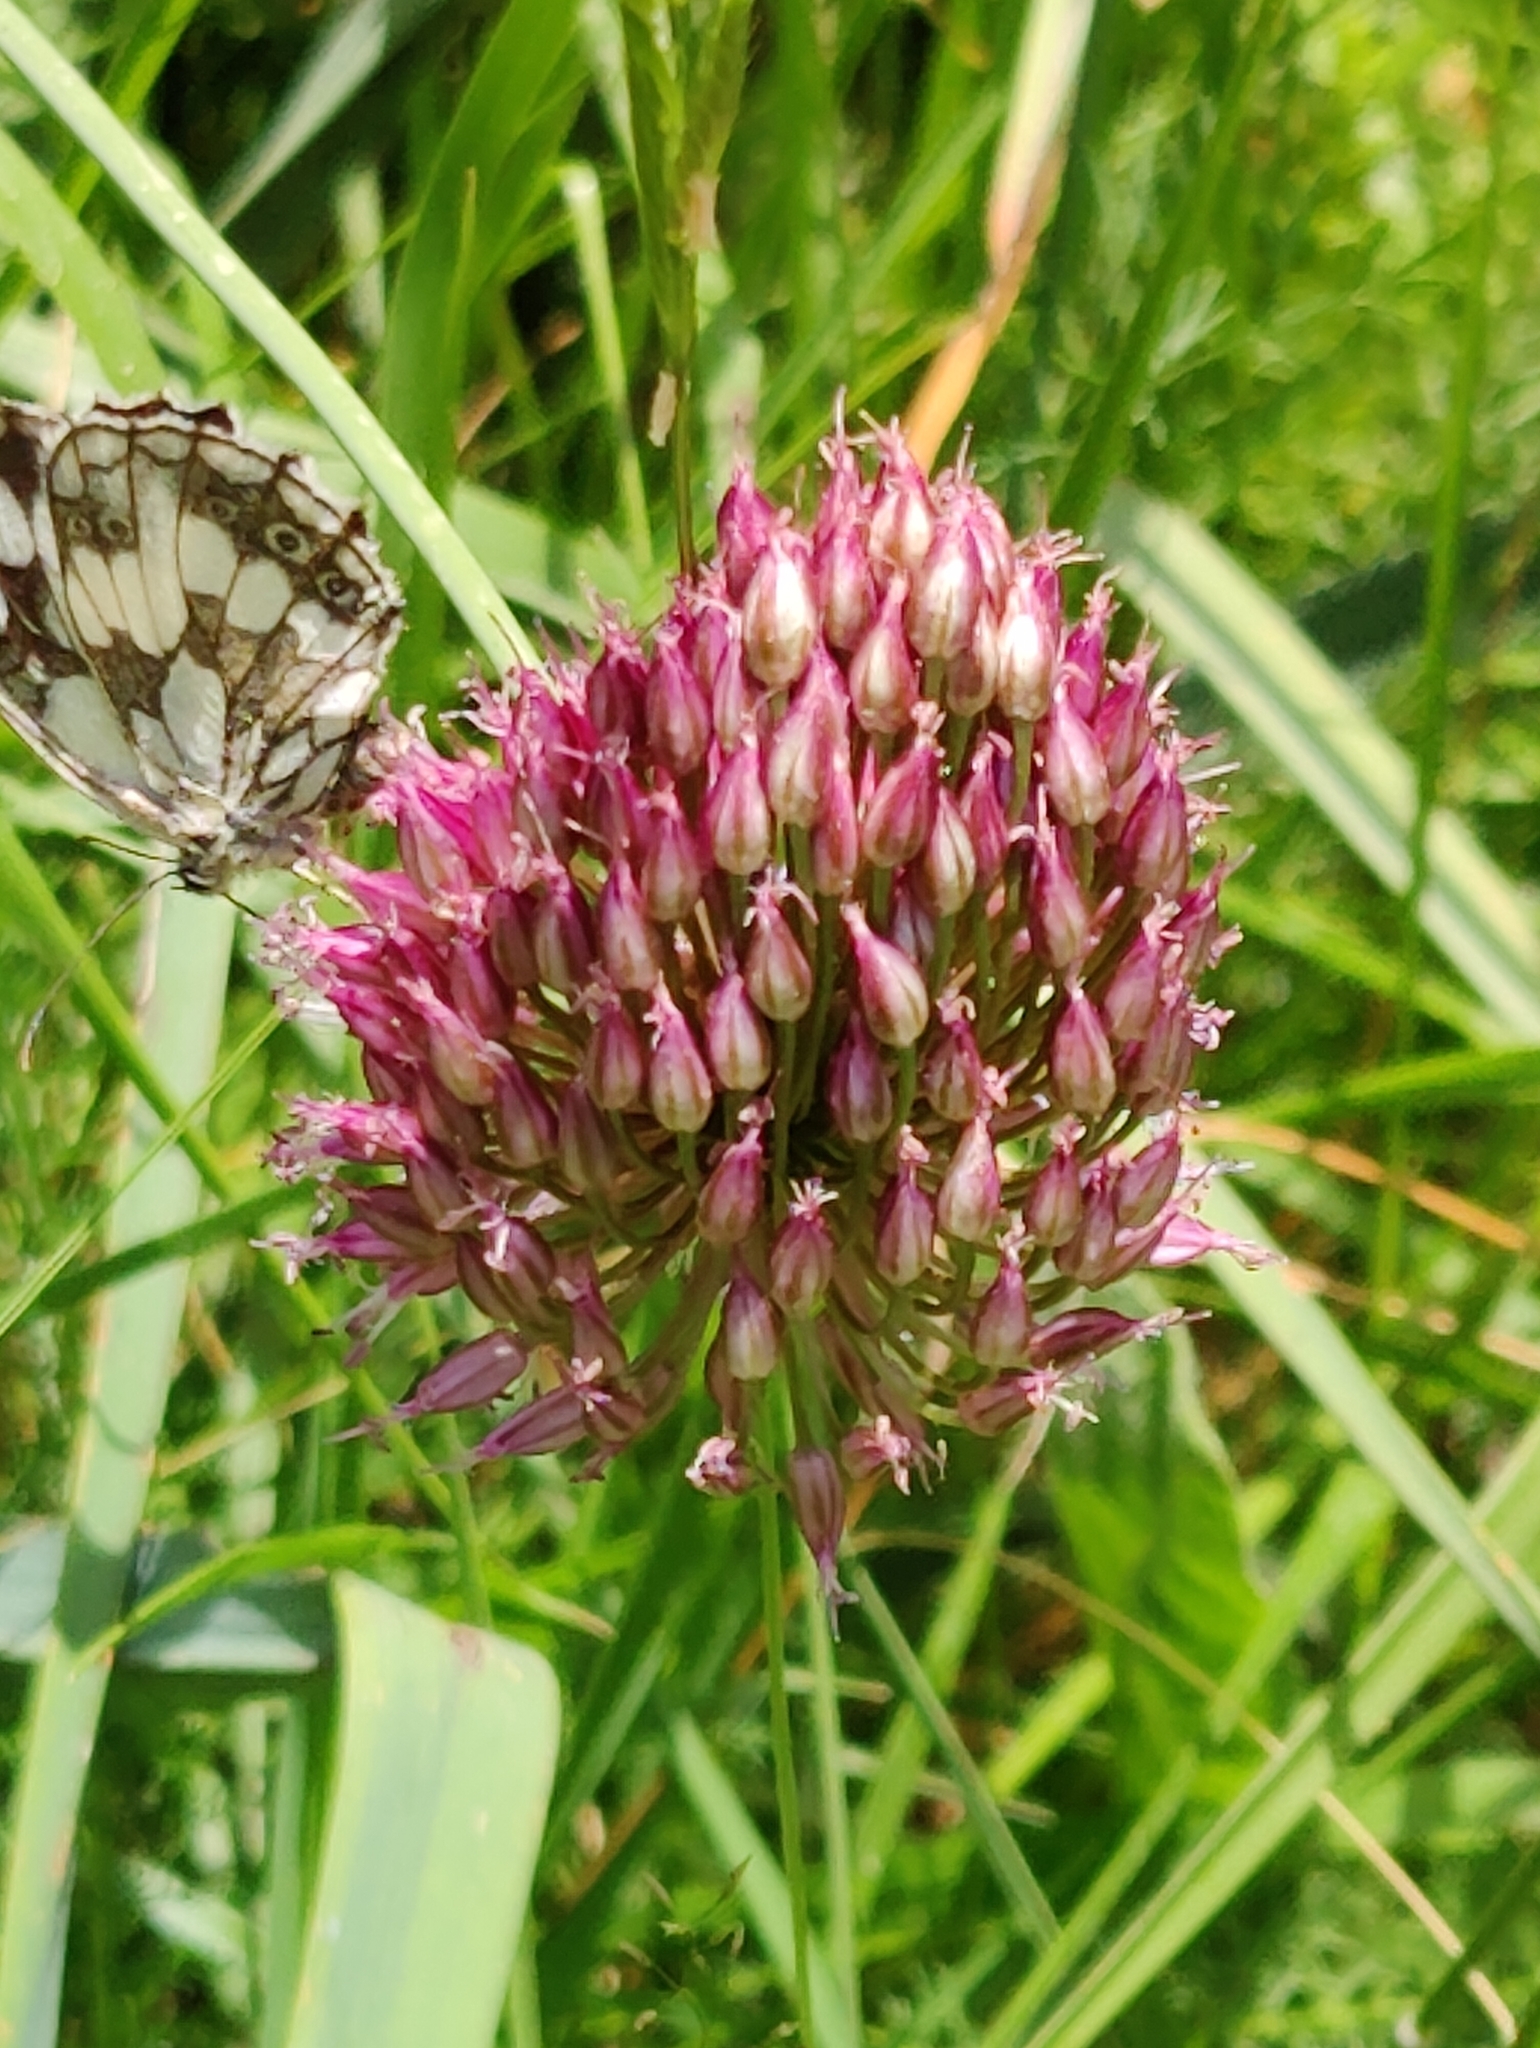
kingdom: Plantae
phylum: Tracheophyta
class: Liliopsida
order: Asparagales
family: Amaryllidaceae
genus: Allium
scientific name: Allium sphaerocephalon
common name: Round-headed leek
